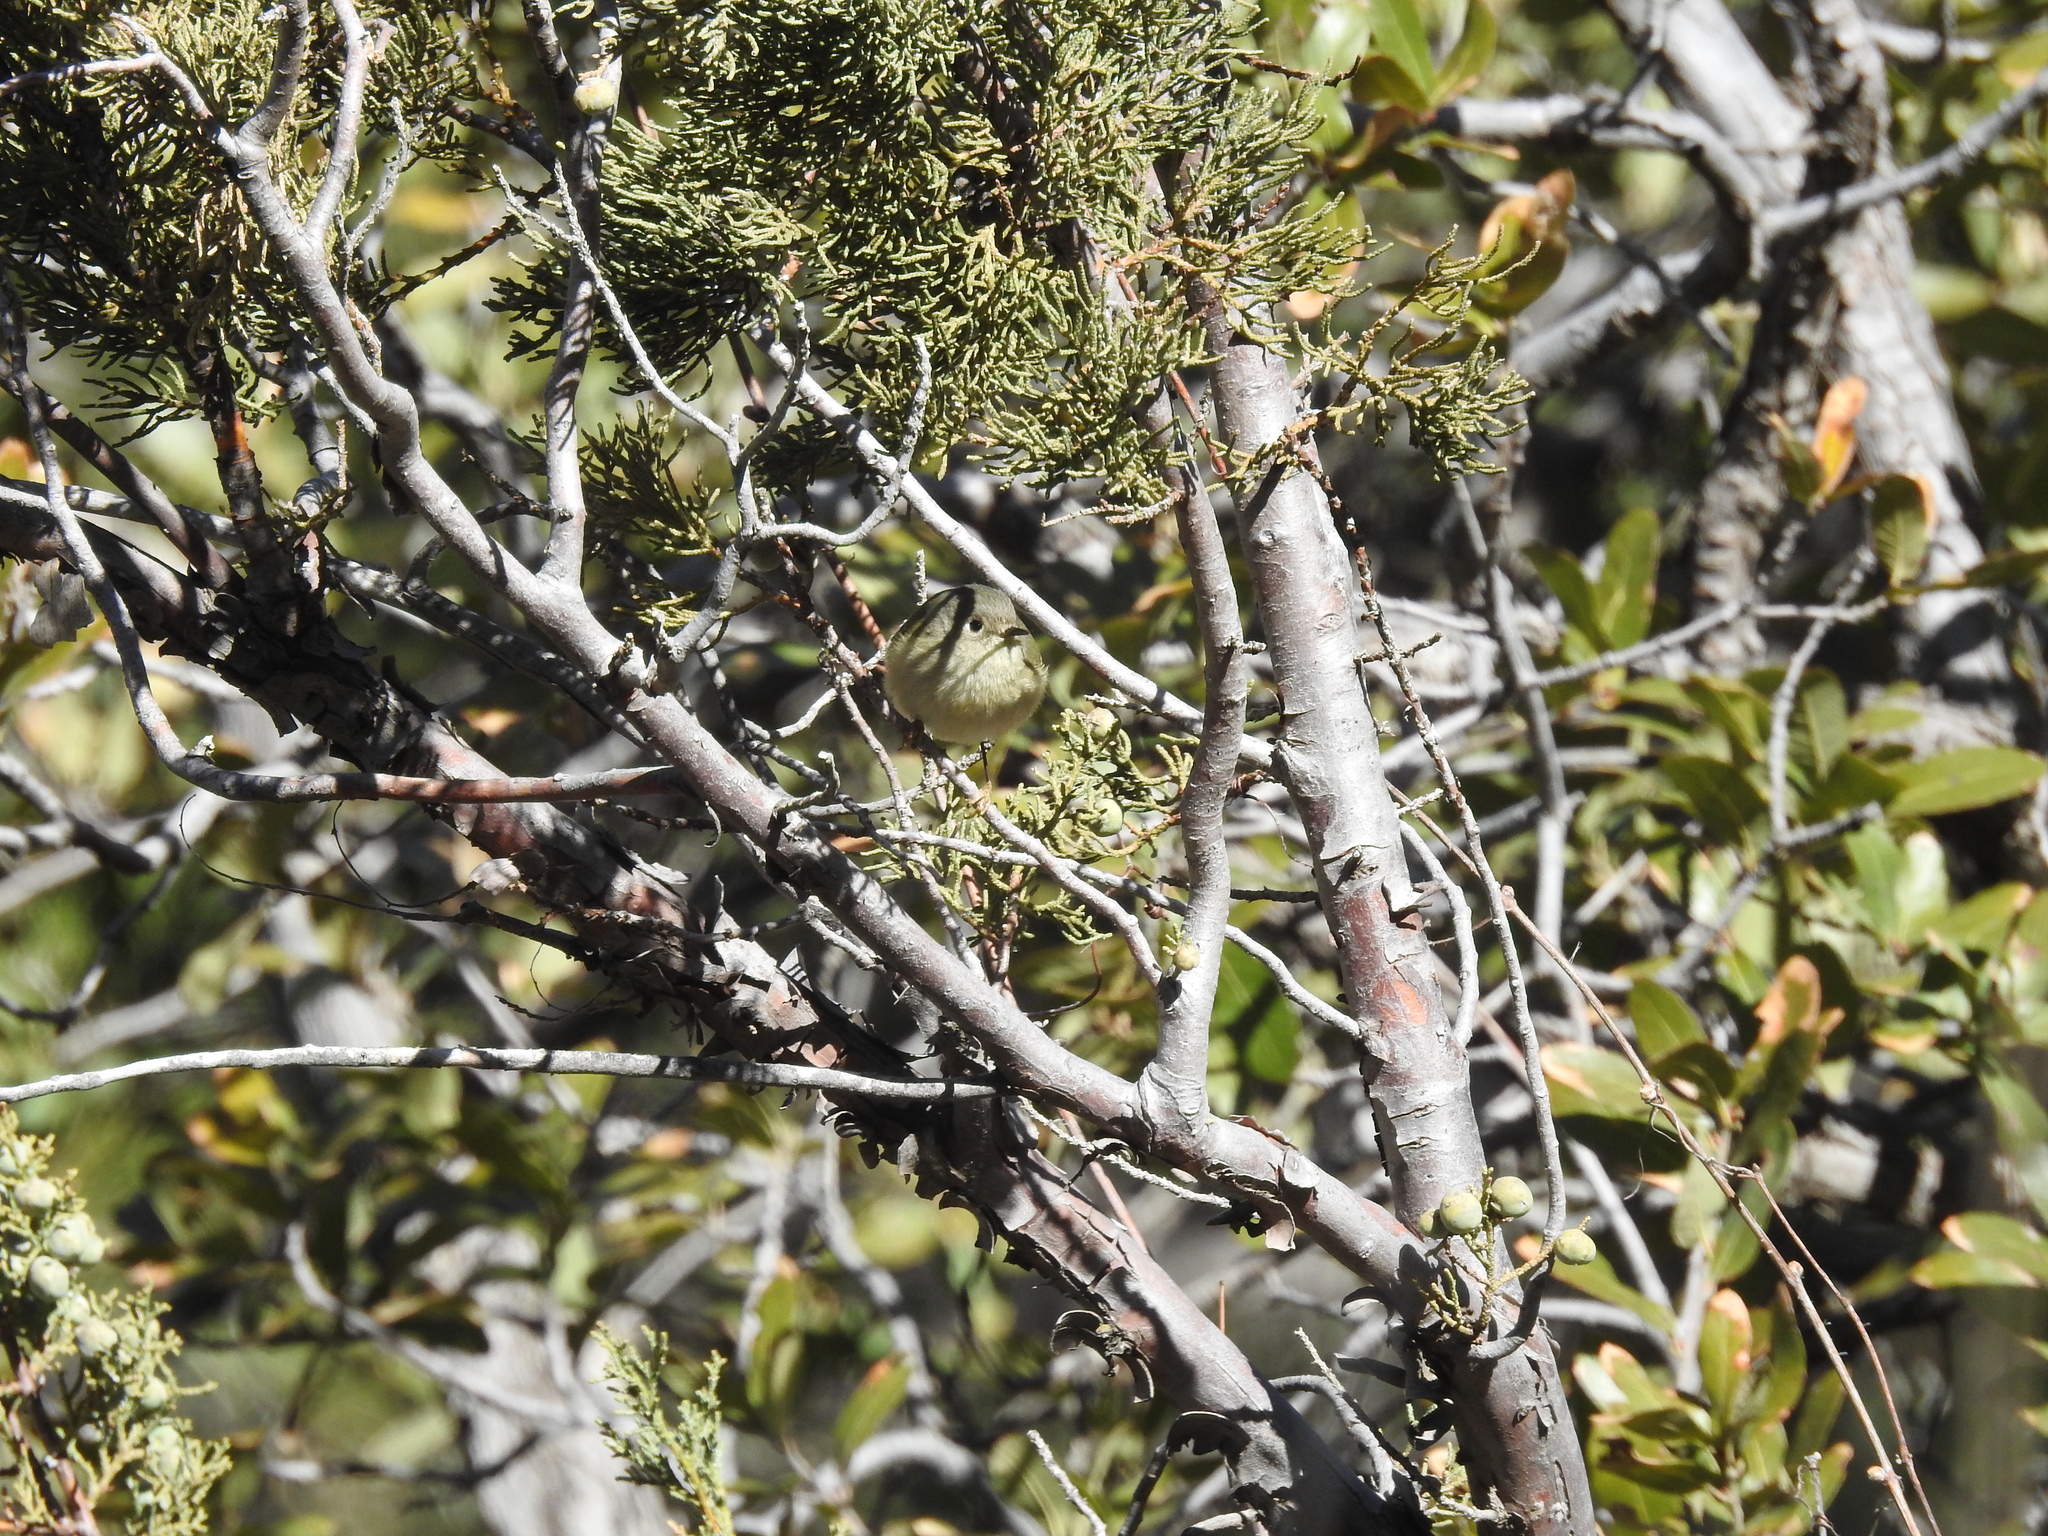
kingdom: Animalia
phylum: Chordata
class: Aves
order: Passeriformes
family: Regulidae
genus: Regulus
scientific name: Regulus calendula
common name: Ruby-crowned kinglet
